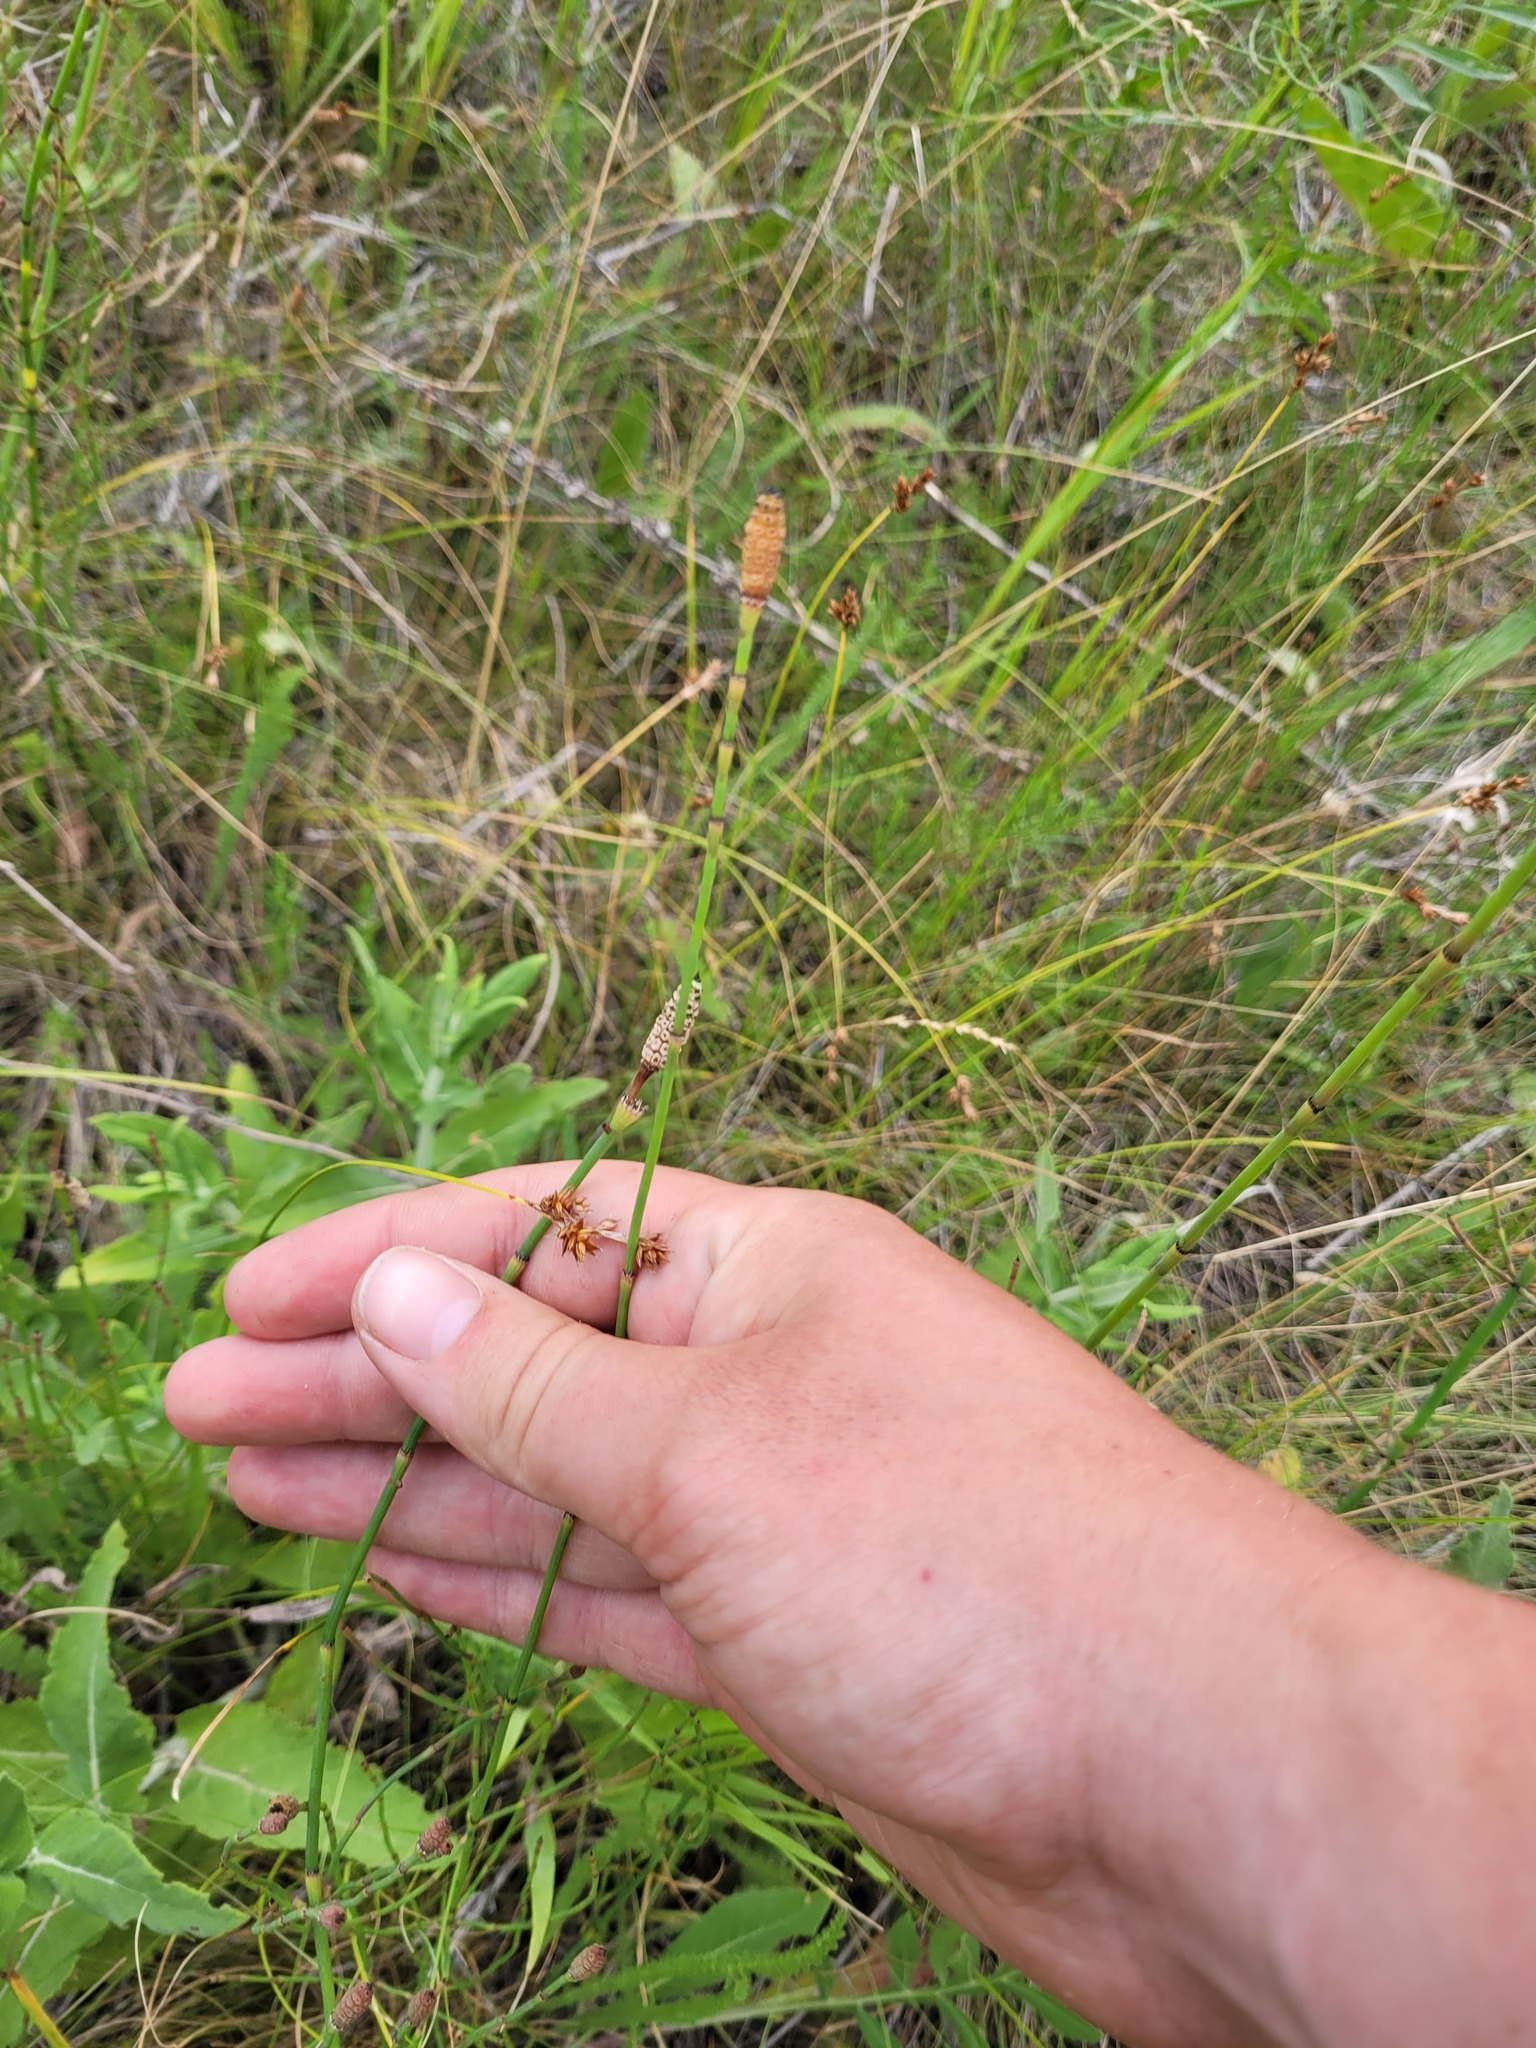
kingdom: Plantae
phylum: Tracheophyta
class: Polypodiopsida
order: Equisetales
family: Equisetaceae
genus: Equisetum
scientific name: Equisetum ramosissimum
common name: Branched horsetail
